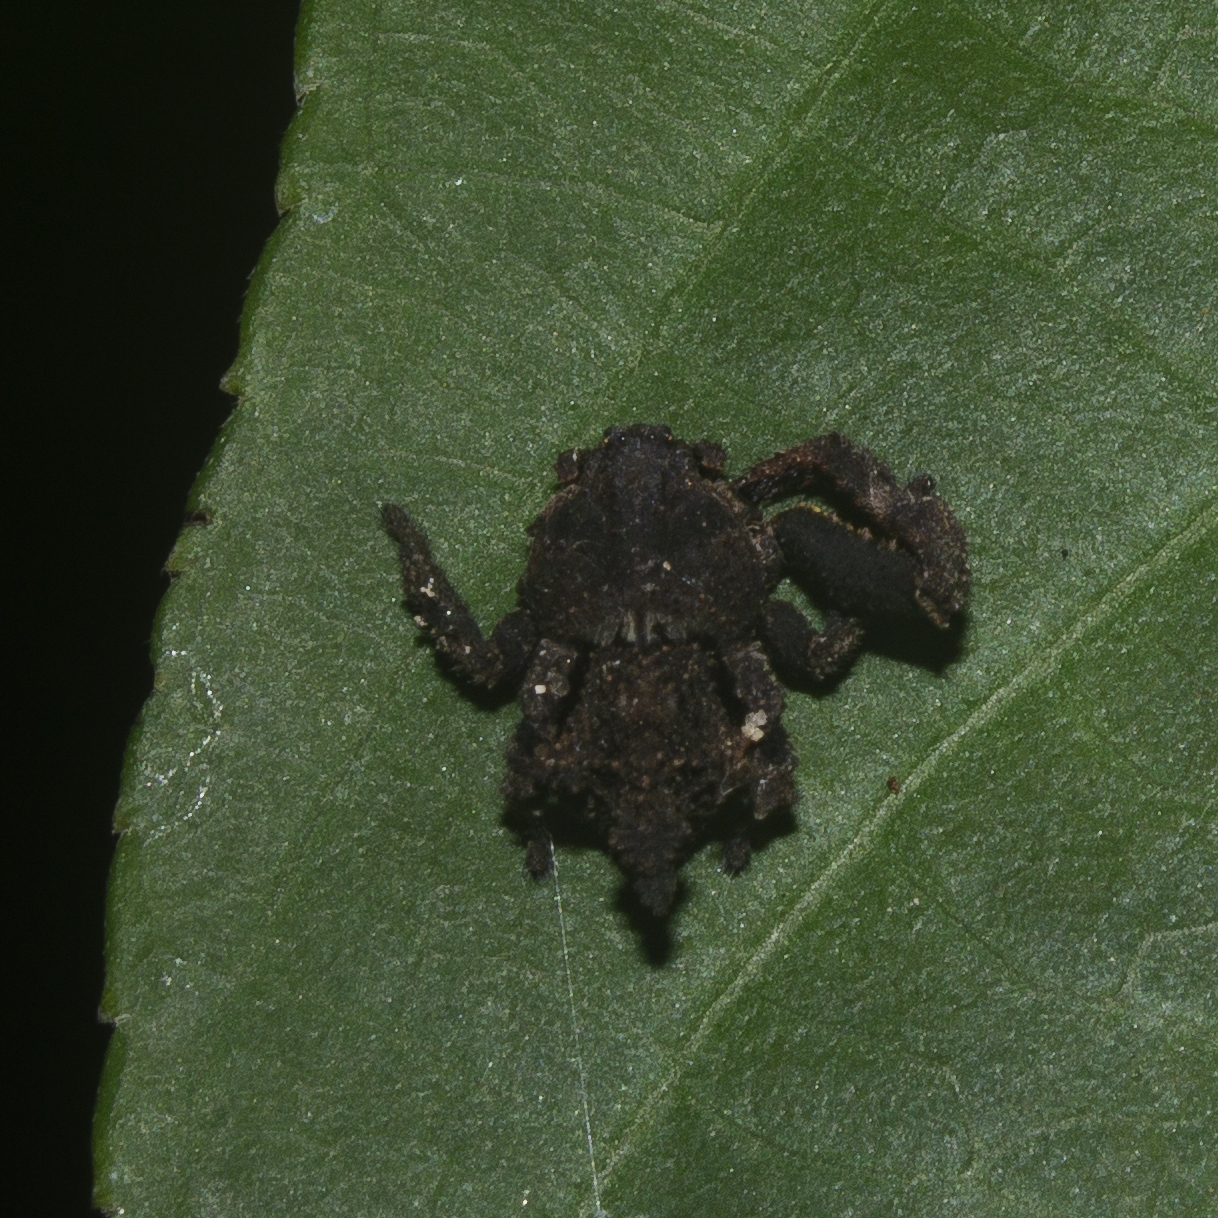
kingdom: Animalia
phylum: Arthropoda
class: Arachnida
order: Araneae
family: Thomisidae
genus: Epicadus
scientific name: Epicadus tuberculatus
